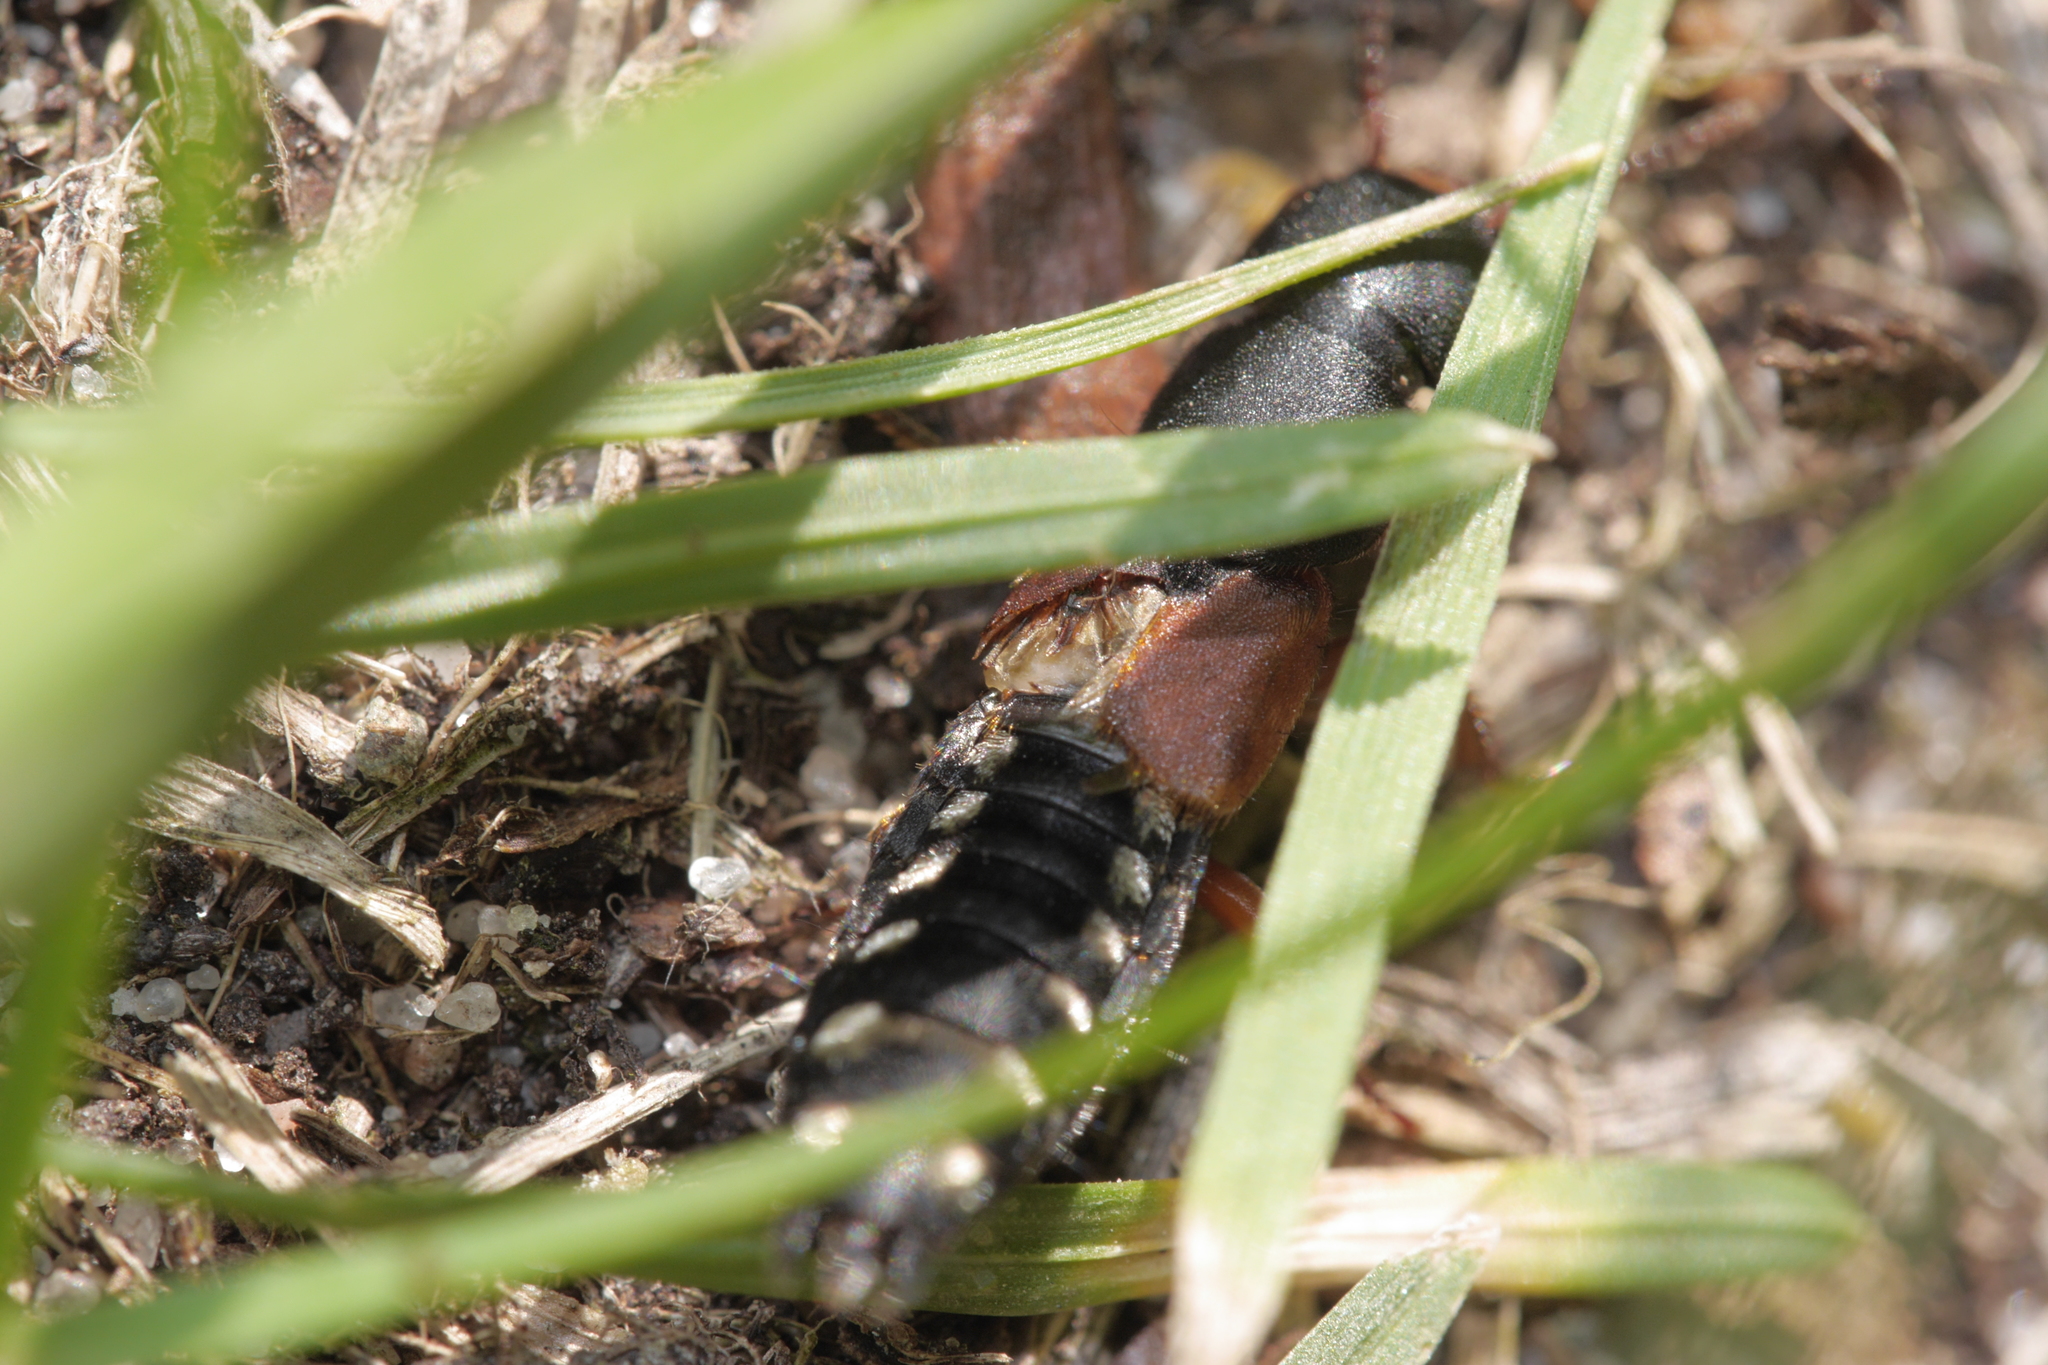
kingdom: Animalia
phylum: Arthropoda
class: Insecta
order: Coleoptera
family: Staphylinidae
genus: Platydracus
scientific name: Platydracus stercorarius
